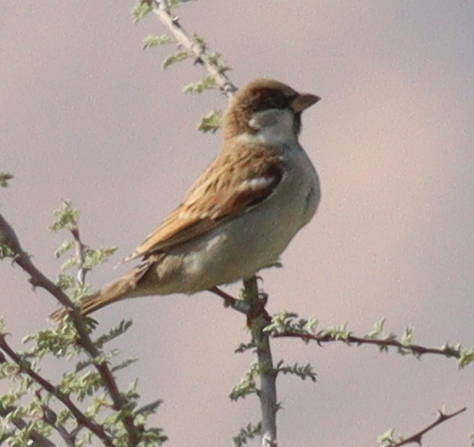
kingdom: Animalia
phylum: Chordata
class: Aves
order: Passeriformes
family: Passeridae
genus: Passer
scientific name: Passer domesticus
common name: House sparrow
